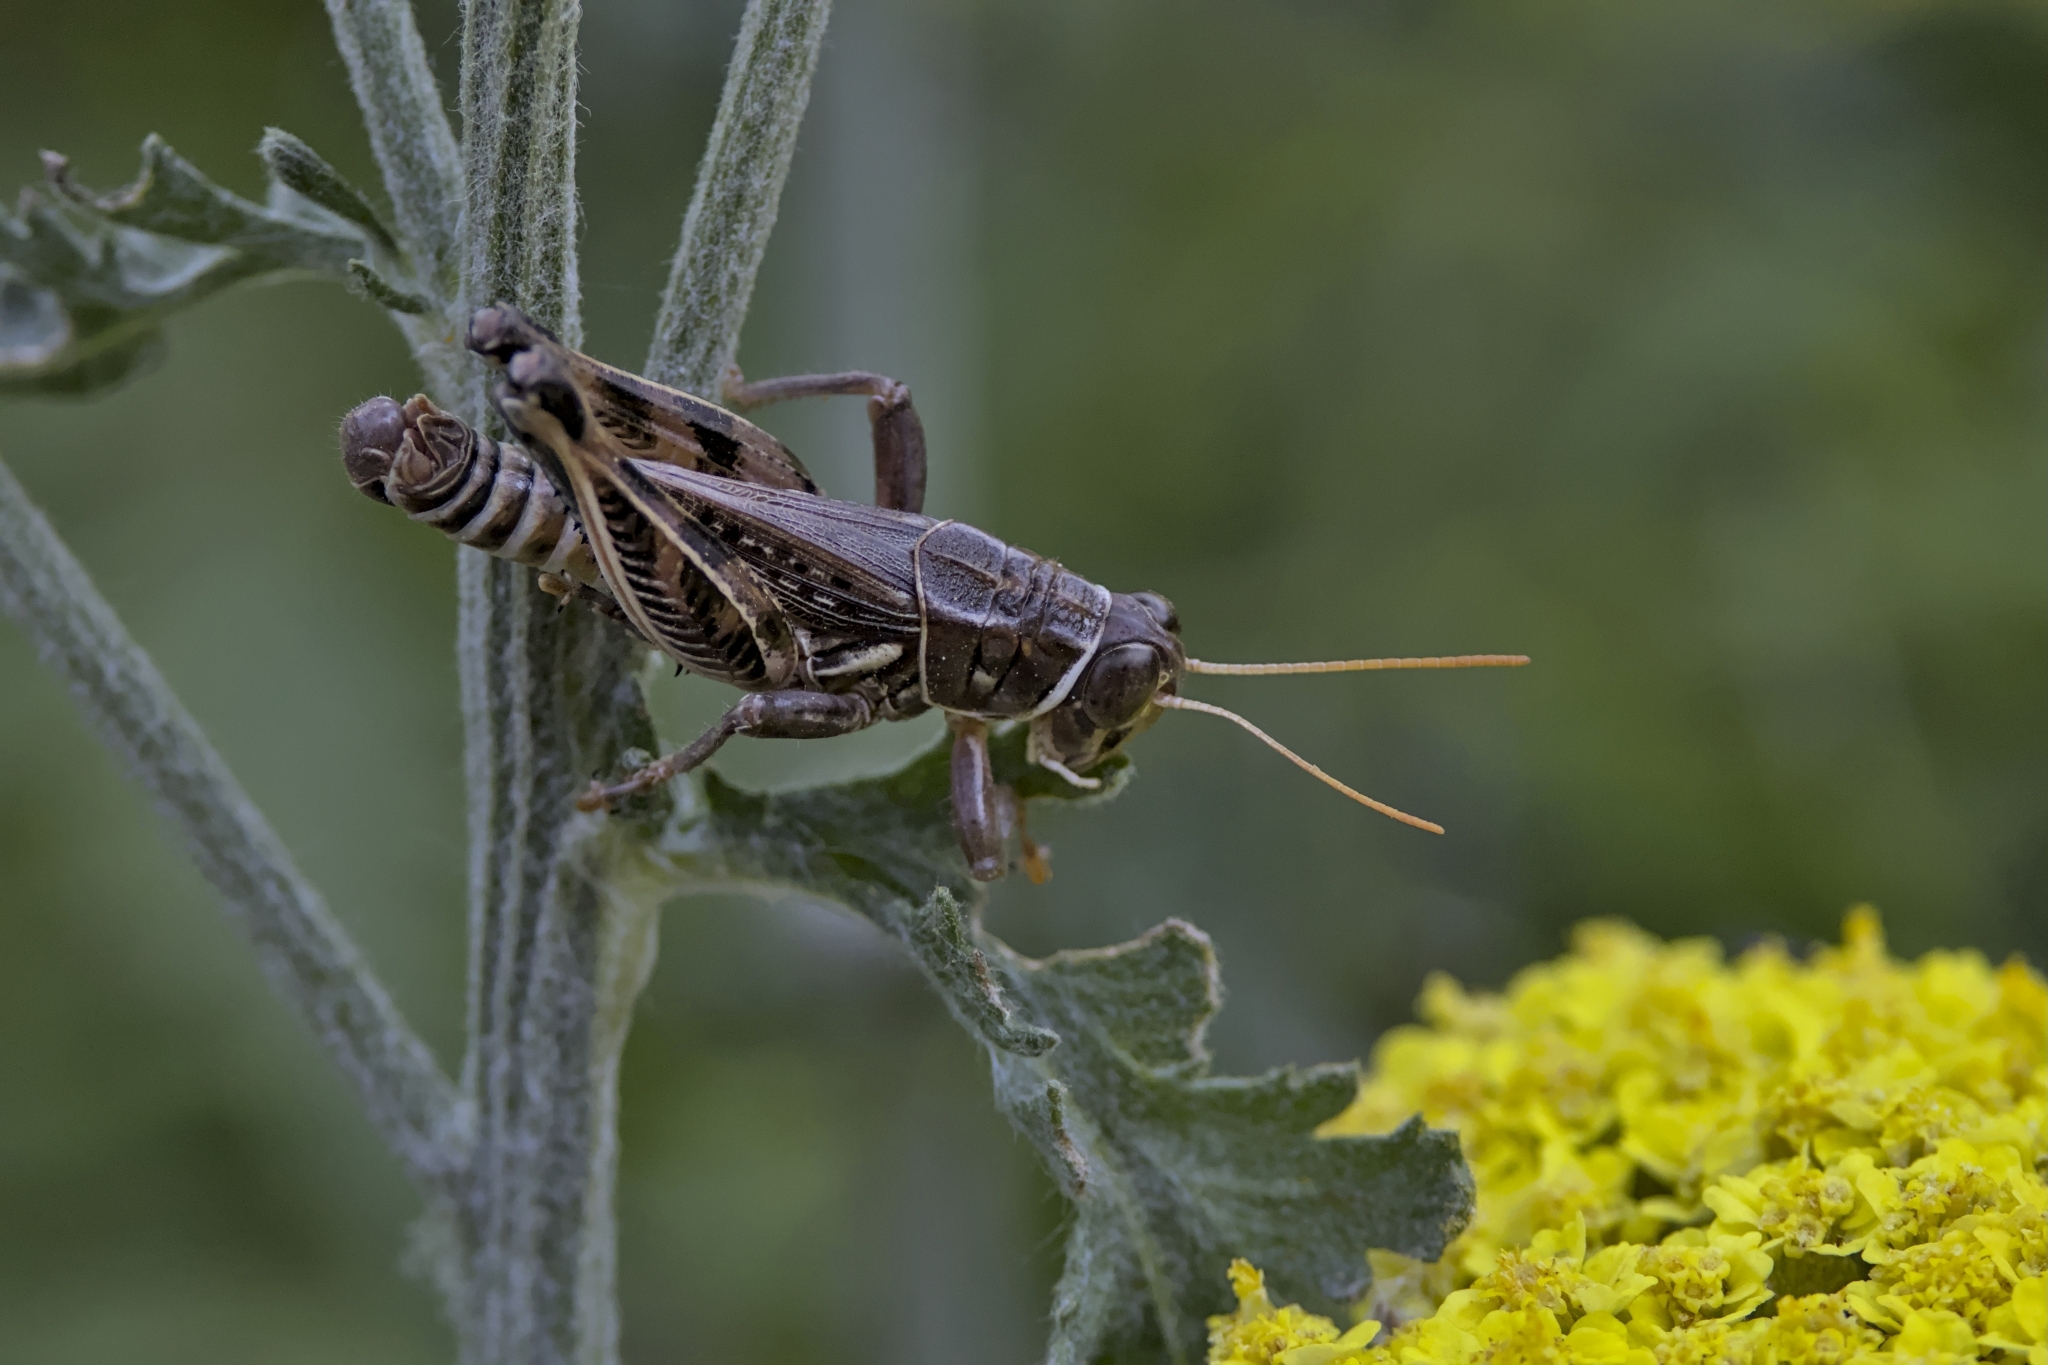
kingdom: Animalia
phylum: Arthropoda
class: Insecta
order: Orthoptera
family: Acrididae
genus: Oedaleonotus
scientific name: Oedaleonotus enigma
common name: Valley grasshopper
